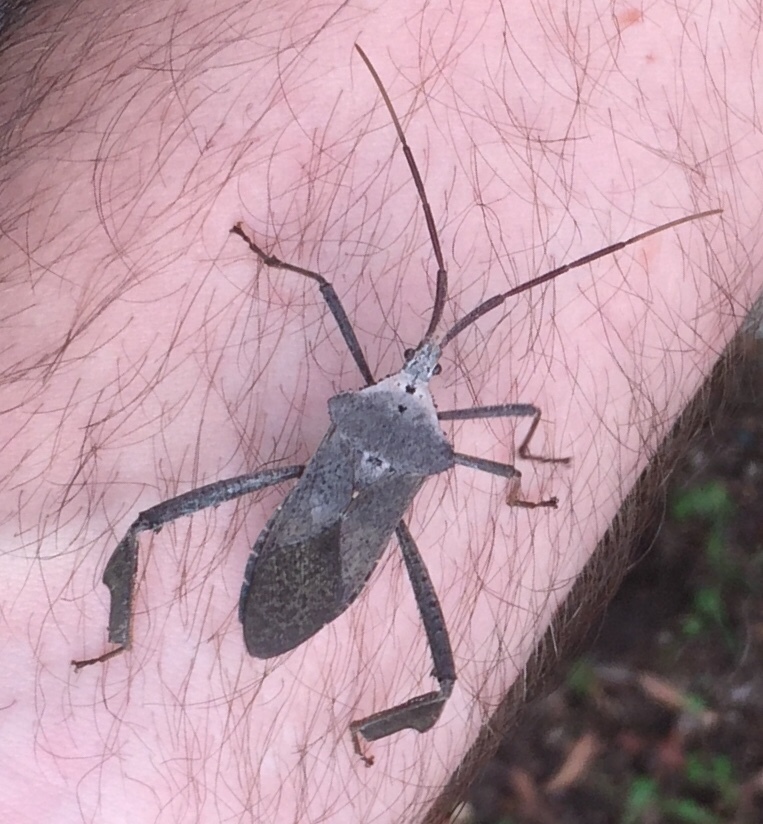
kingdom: Animalia
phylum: Arthropoda
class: Insecta
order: Hemiptera
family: Coreidae
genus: Acanthocephala
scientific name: Acanthocephala declivis
